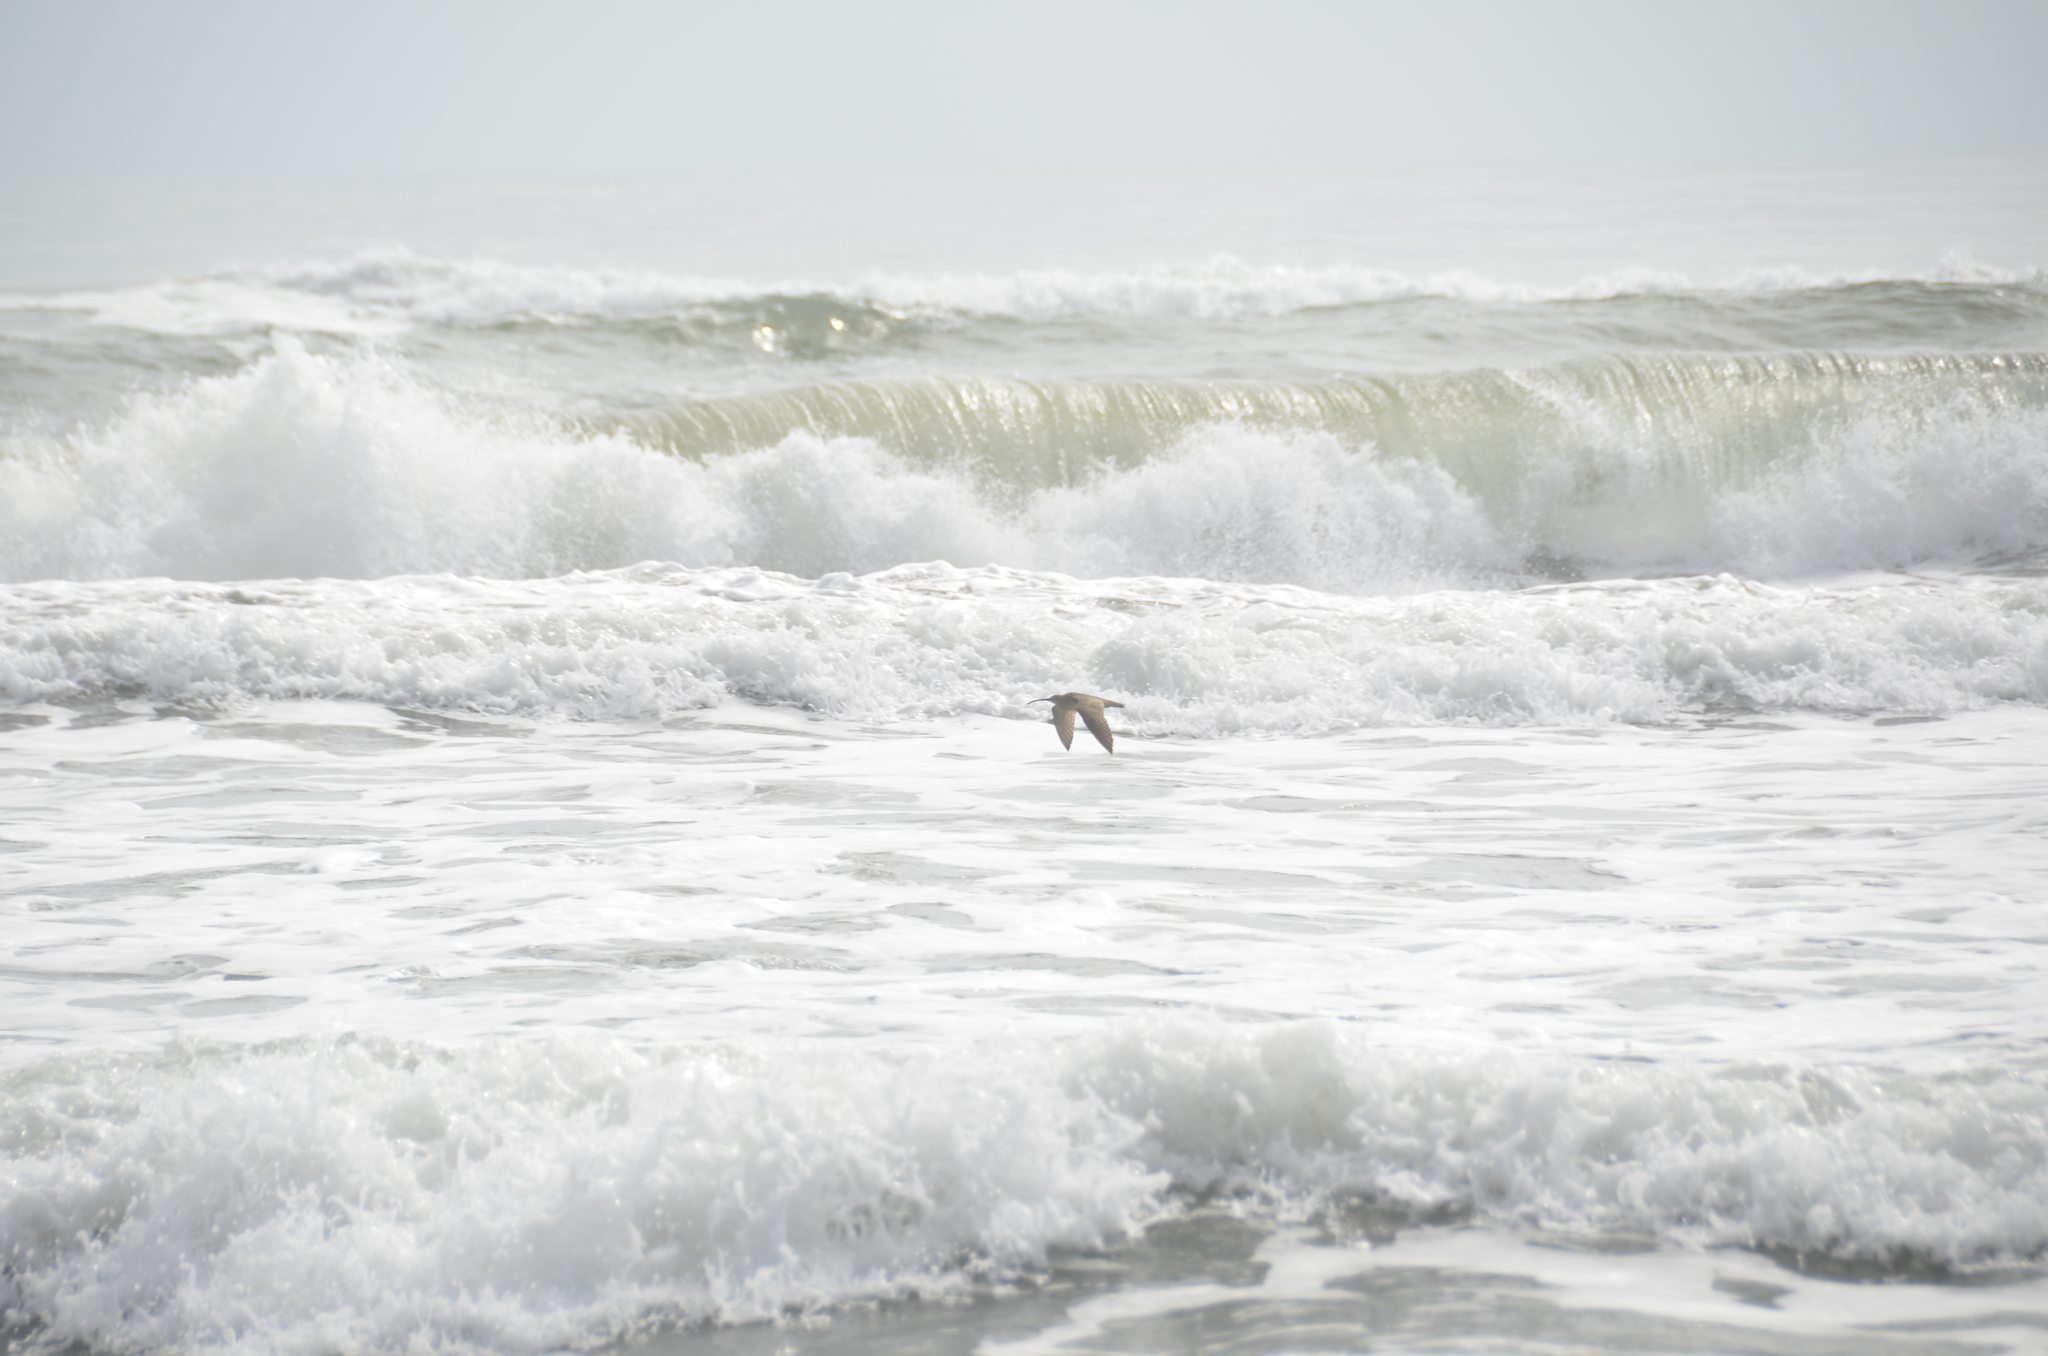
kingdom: Animalia
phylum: Chordata
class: Aves
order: Charadriiformes
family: Scolopacidae
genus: Numenius
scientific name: Numenius phaeopus
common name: Whimbrel
